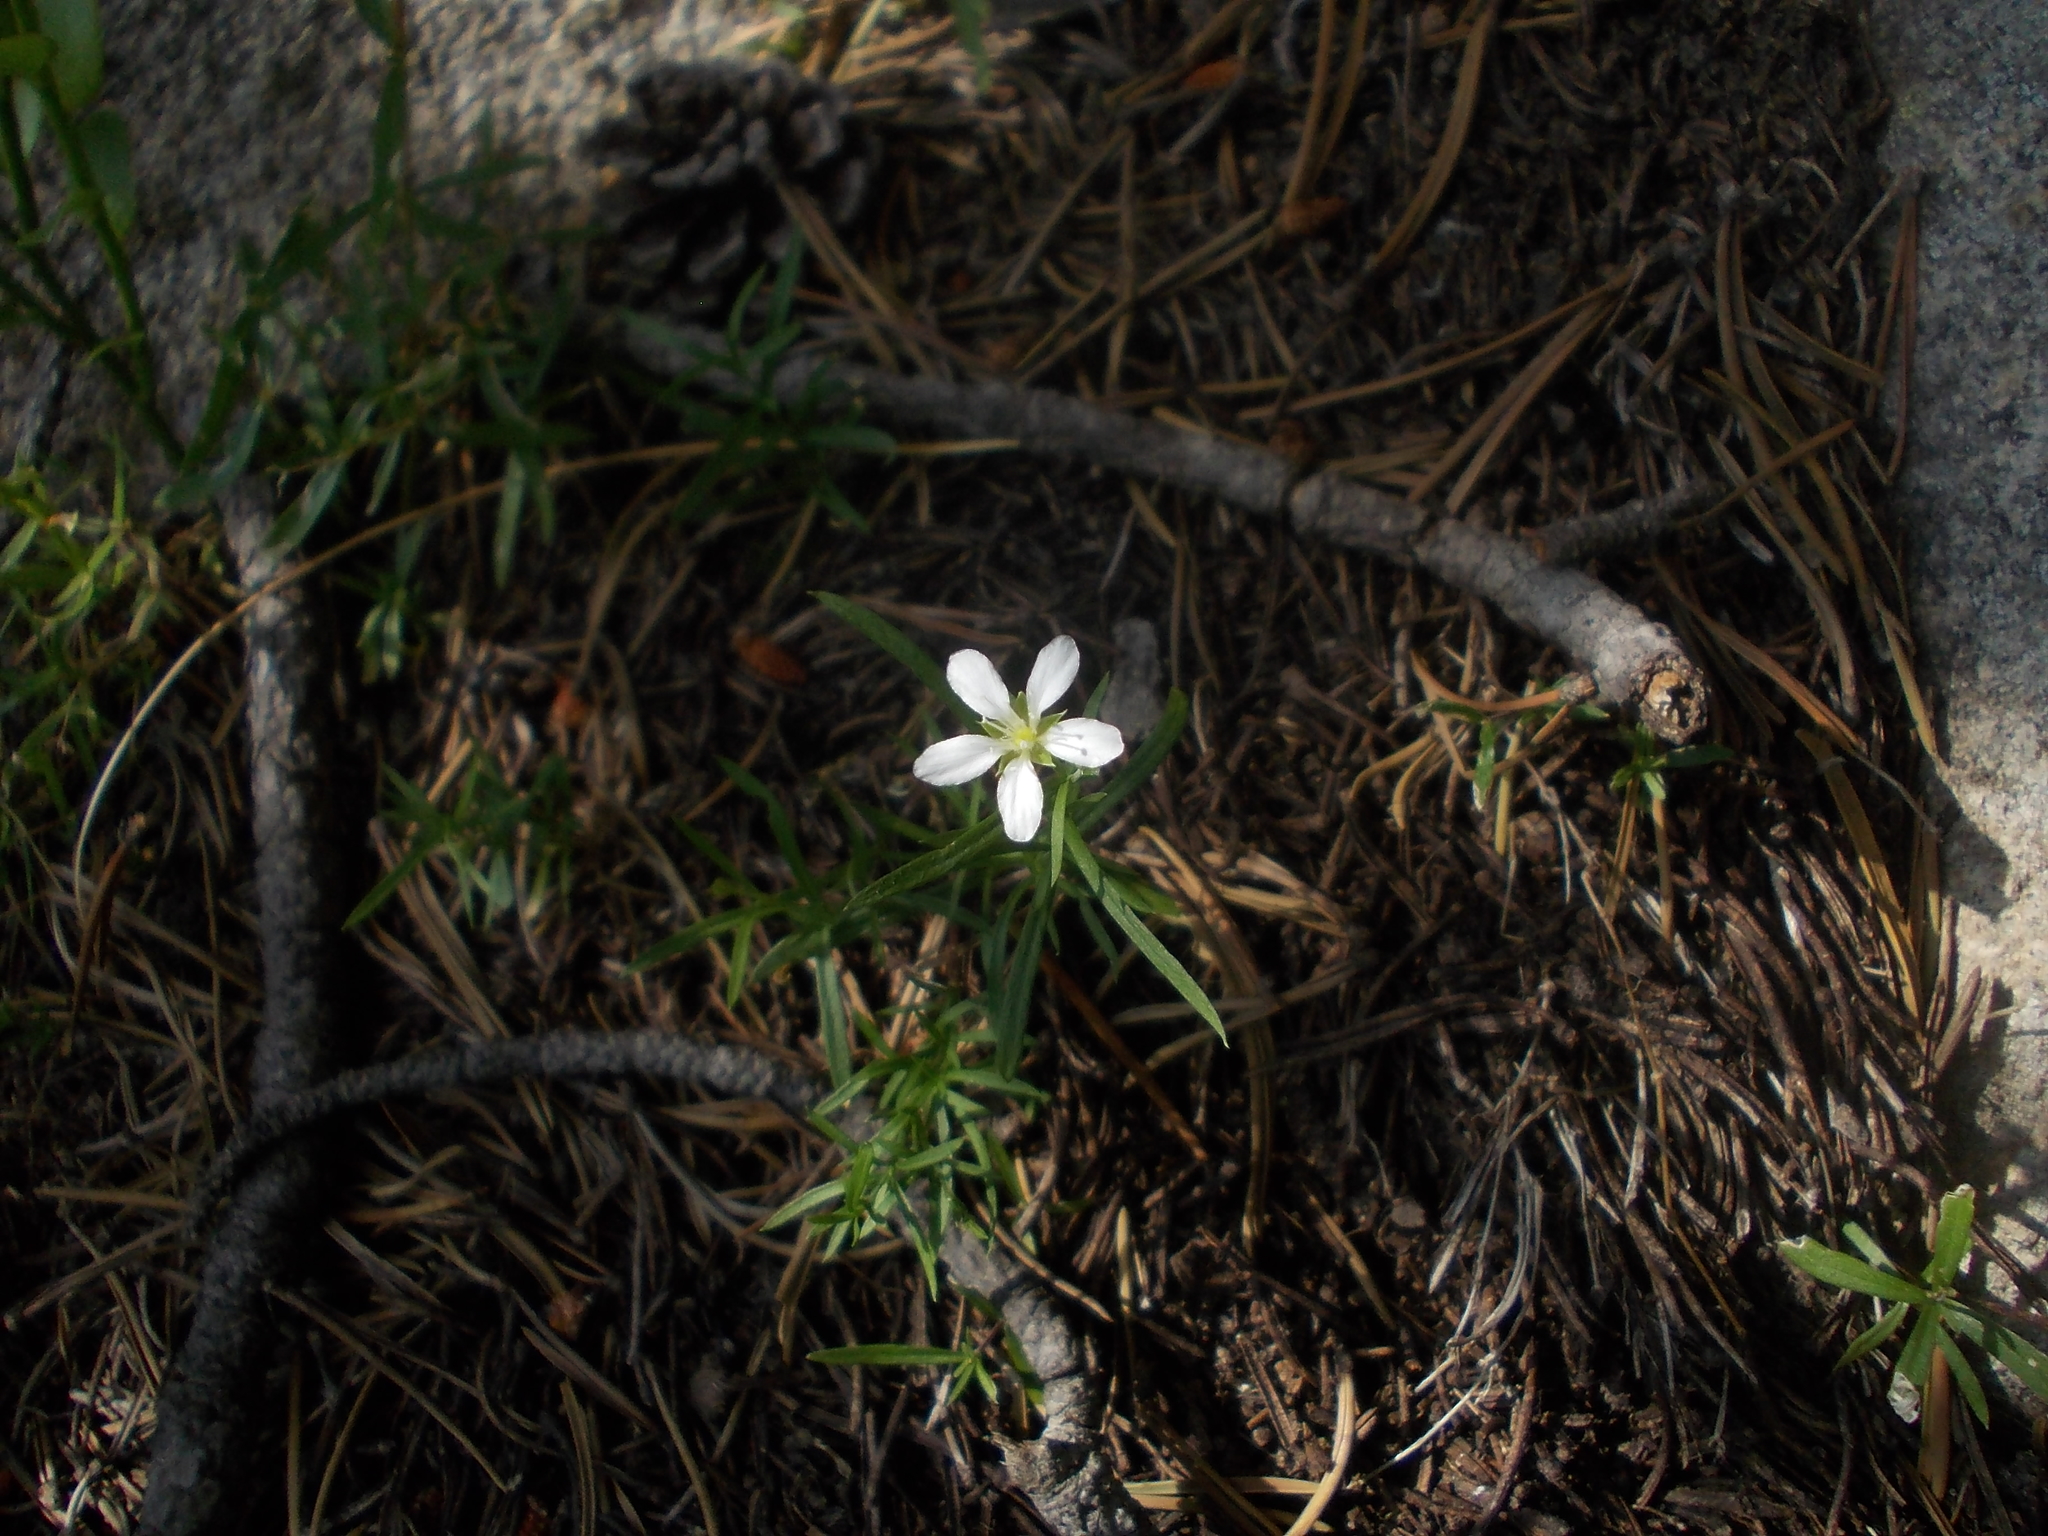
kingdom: Plantae
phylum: Tracheophyta
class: Magnoliopsida
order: Caryophyllales
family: Caryophyllaceae
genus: Moehringia
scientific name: Moehringia pendula
